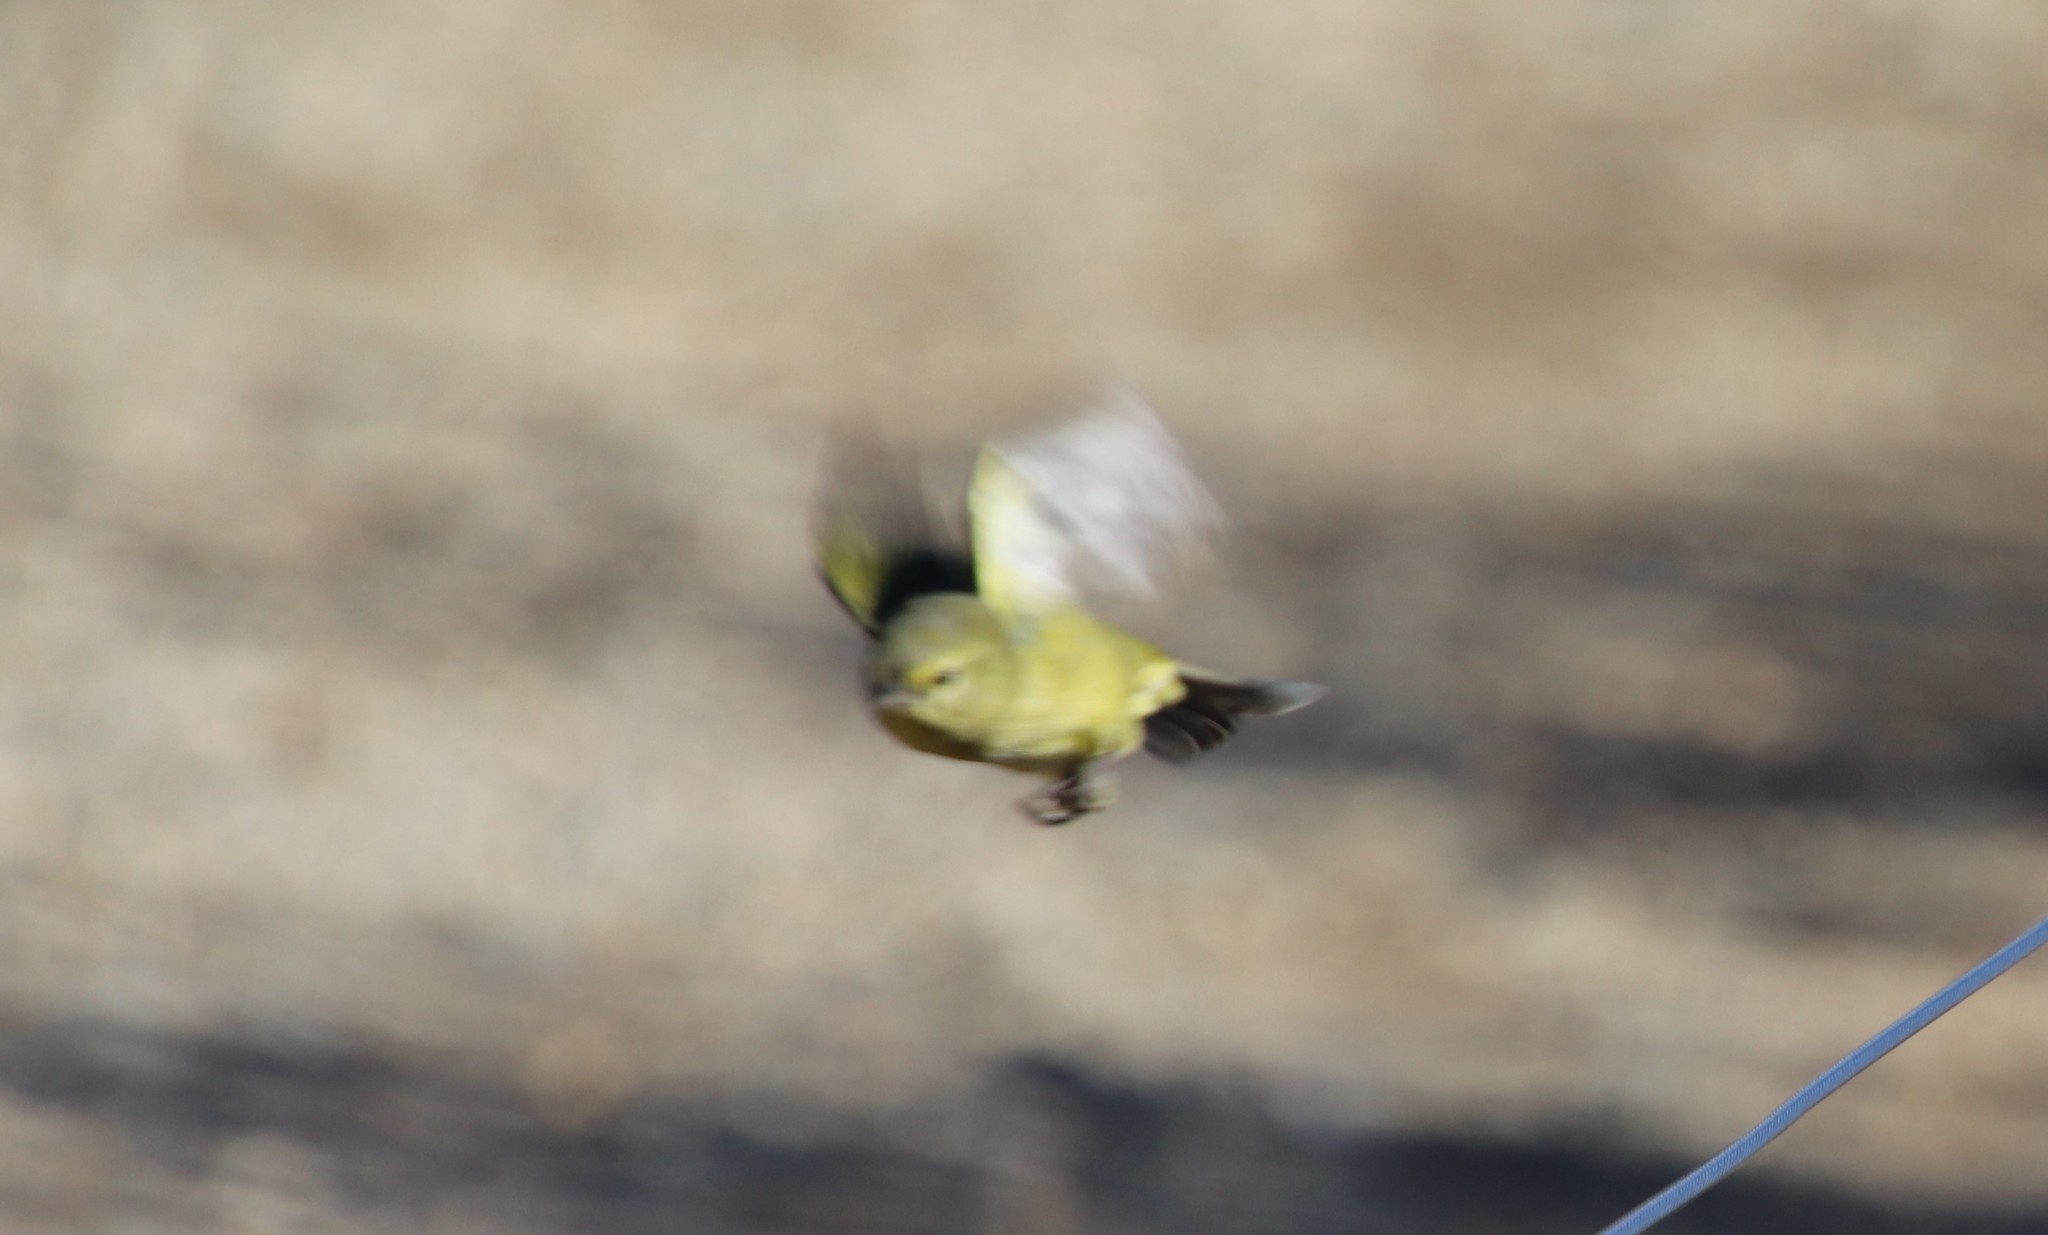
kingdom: Animalia
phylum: Chordata
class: Aves
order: Passeriformes
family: Parulidae
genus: Leiothlypis
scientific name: Leiothlypis celata
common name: Orange-crowned warbler
